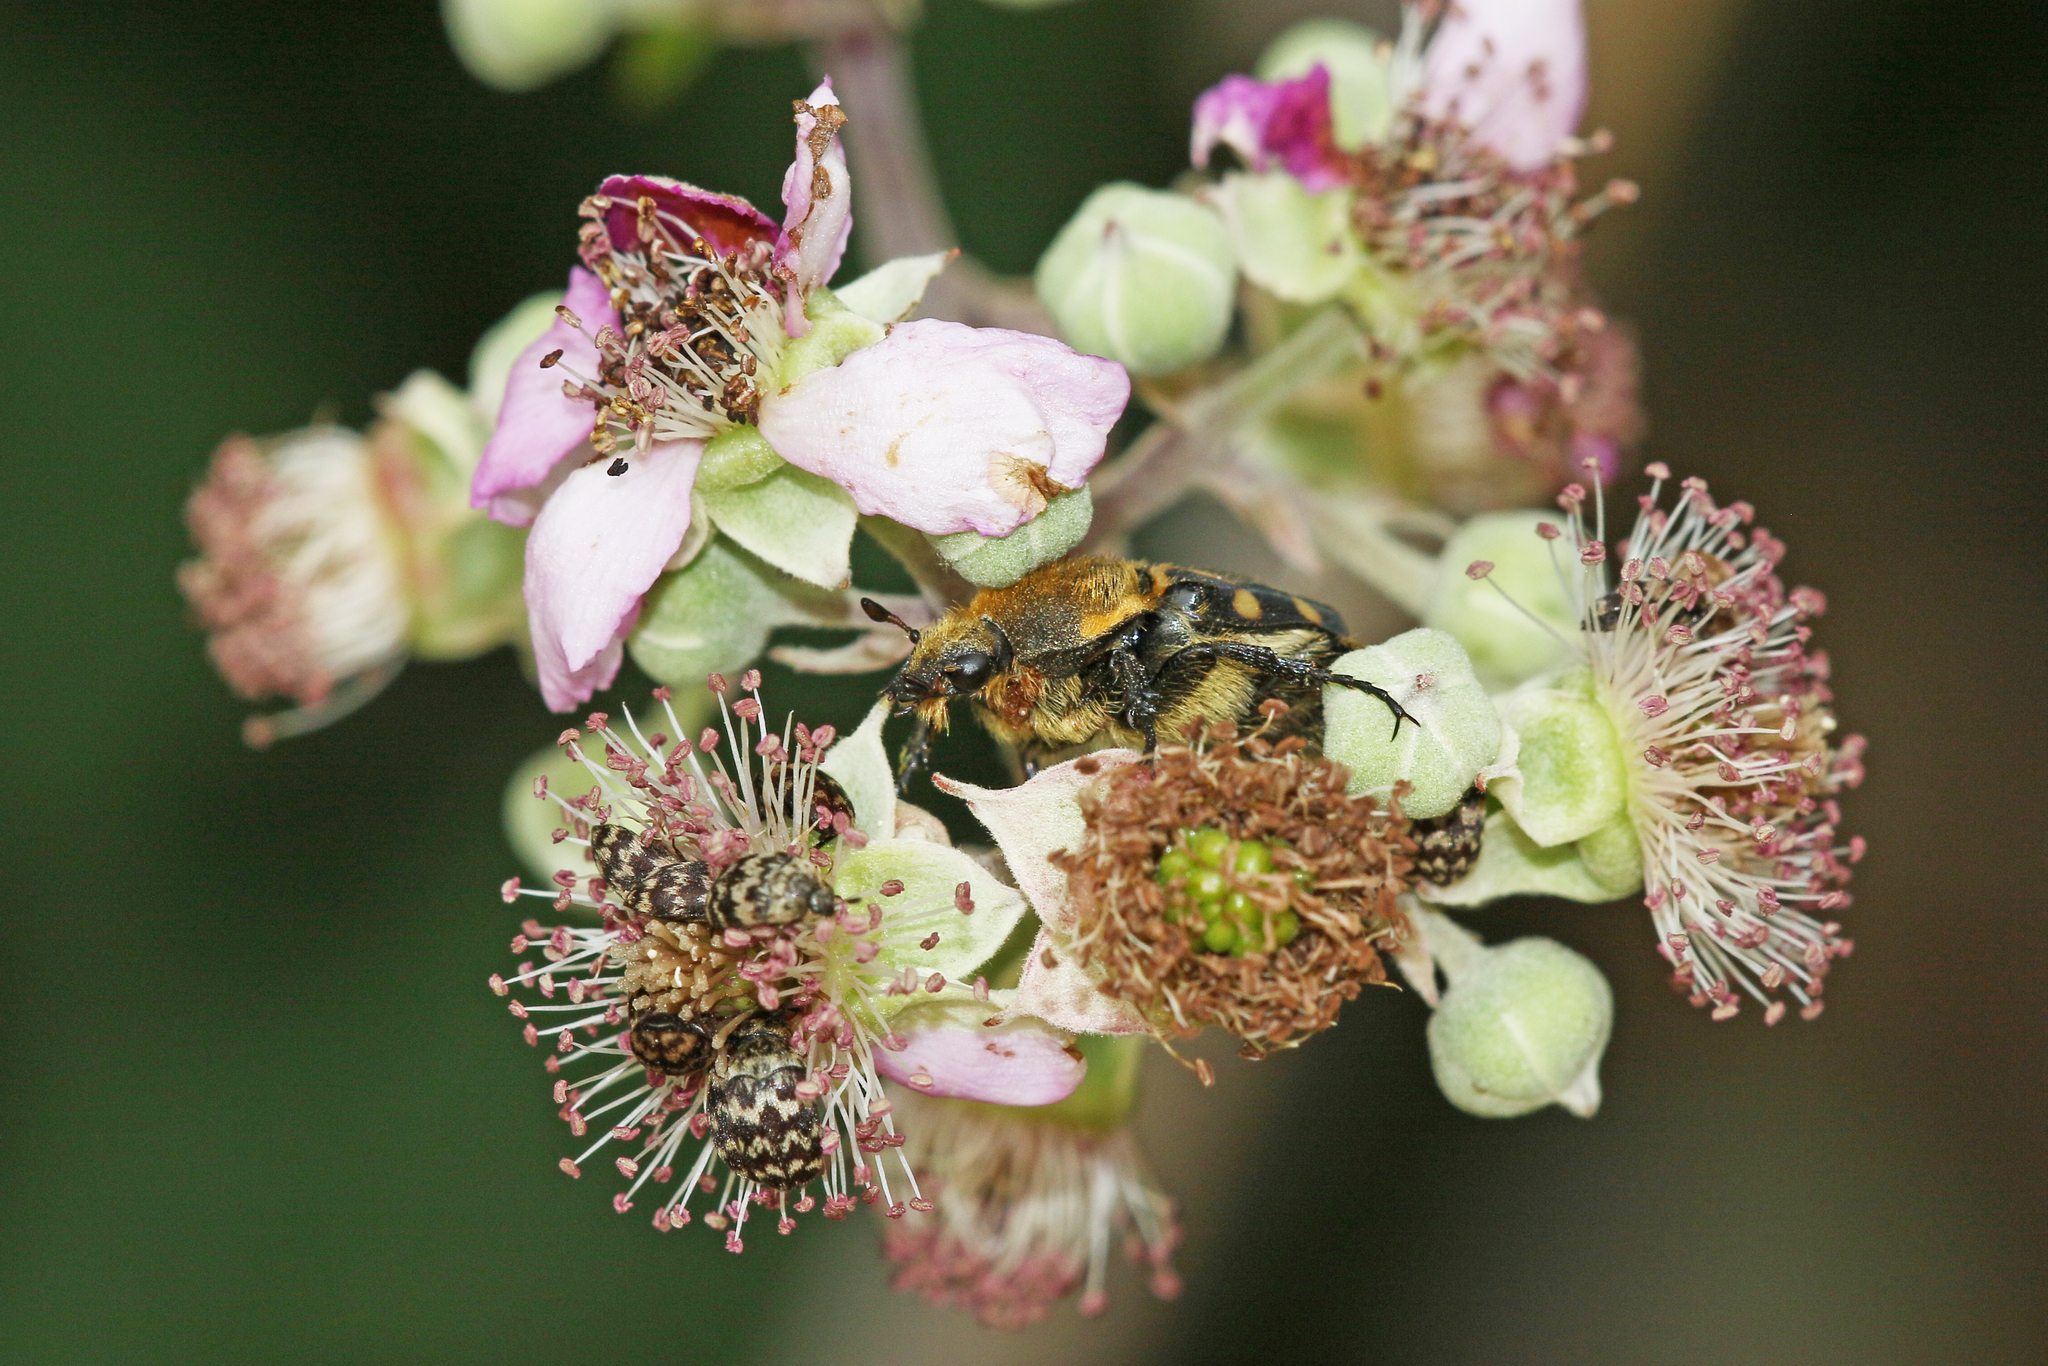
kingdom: Animalia
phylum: Arthropoda
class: Insecta
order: Coleoptera
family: Scarabaeidae
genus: Trichius
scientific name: Trichius gallicus
